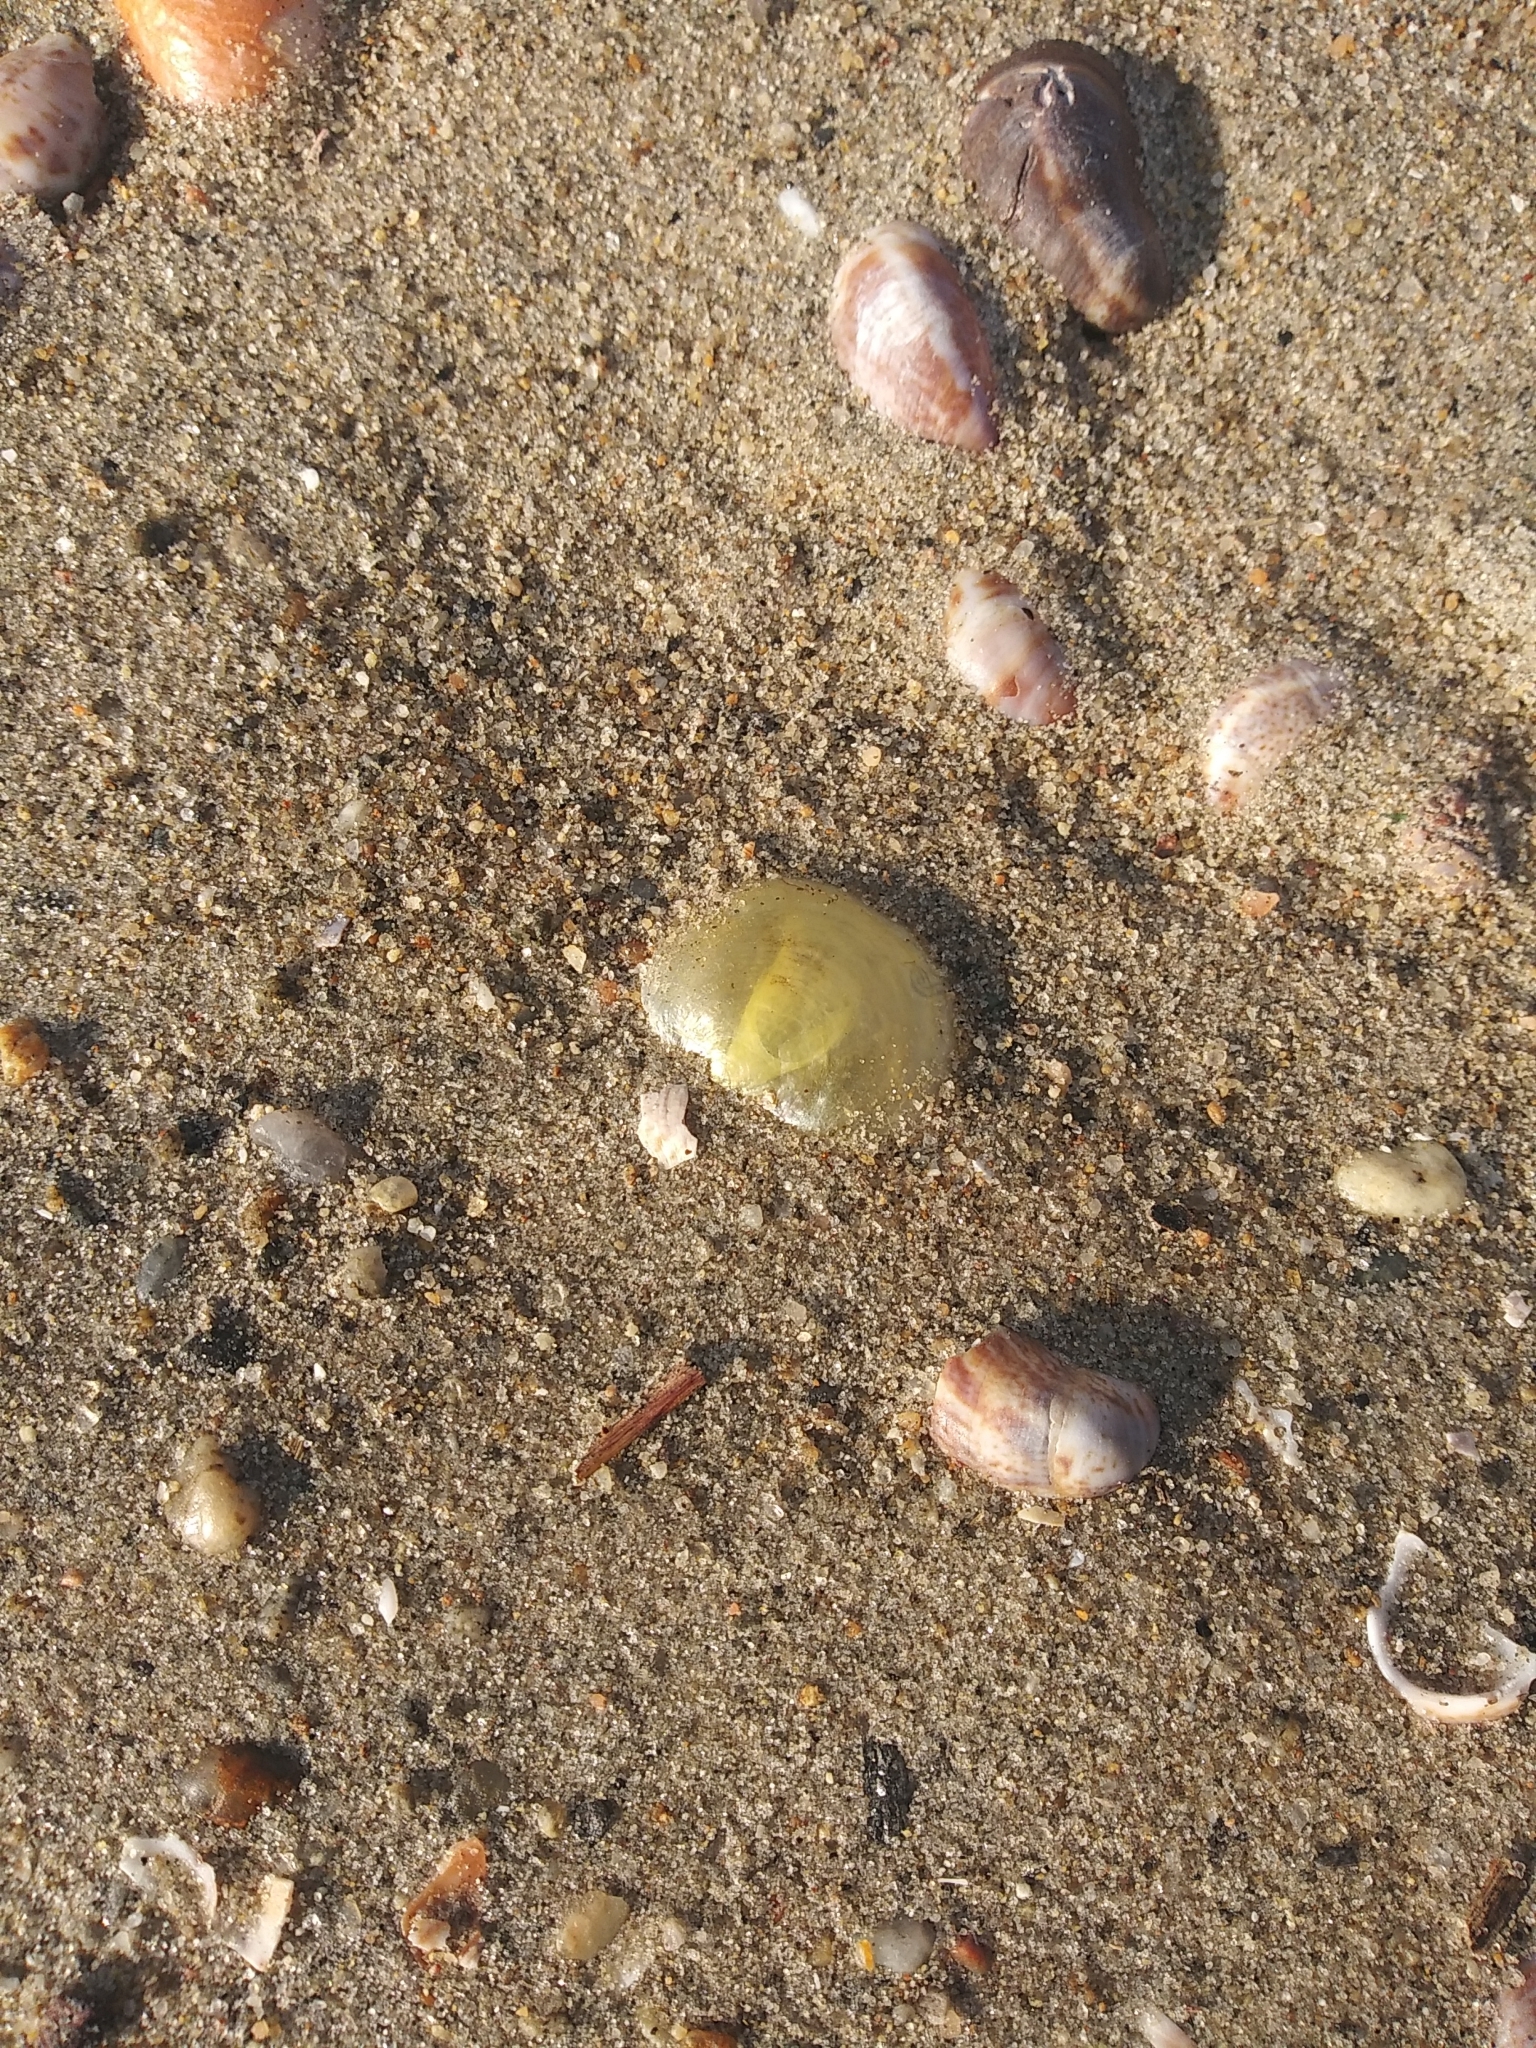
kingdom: Animalia
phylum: Mollusca
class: Bivalvia
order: Pectinida
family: Anomiidae
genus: Anomia
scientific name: Anomia simplex
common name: Common jingle shell
